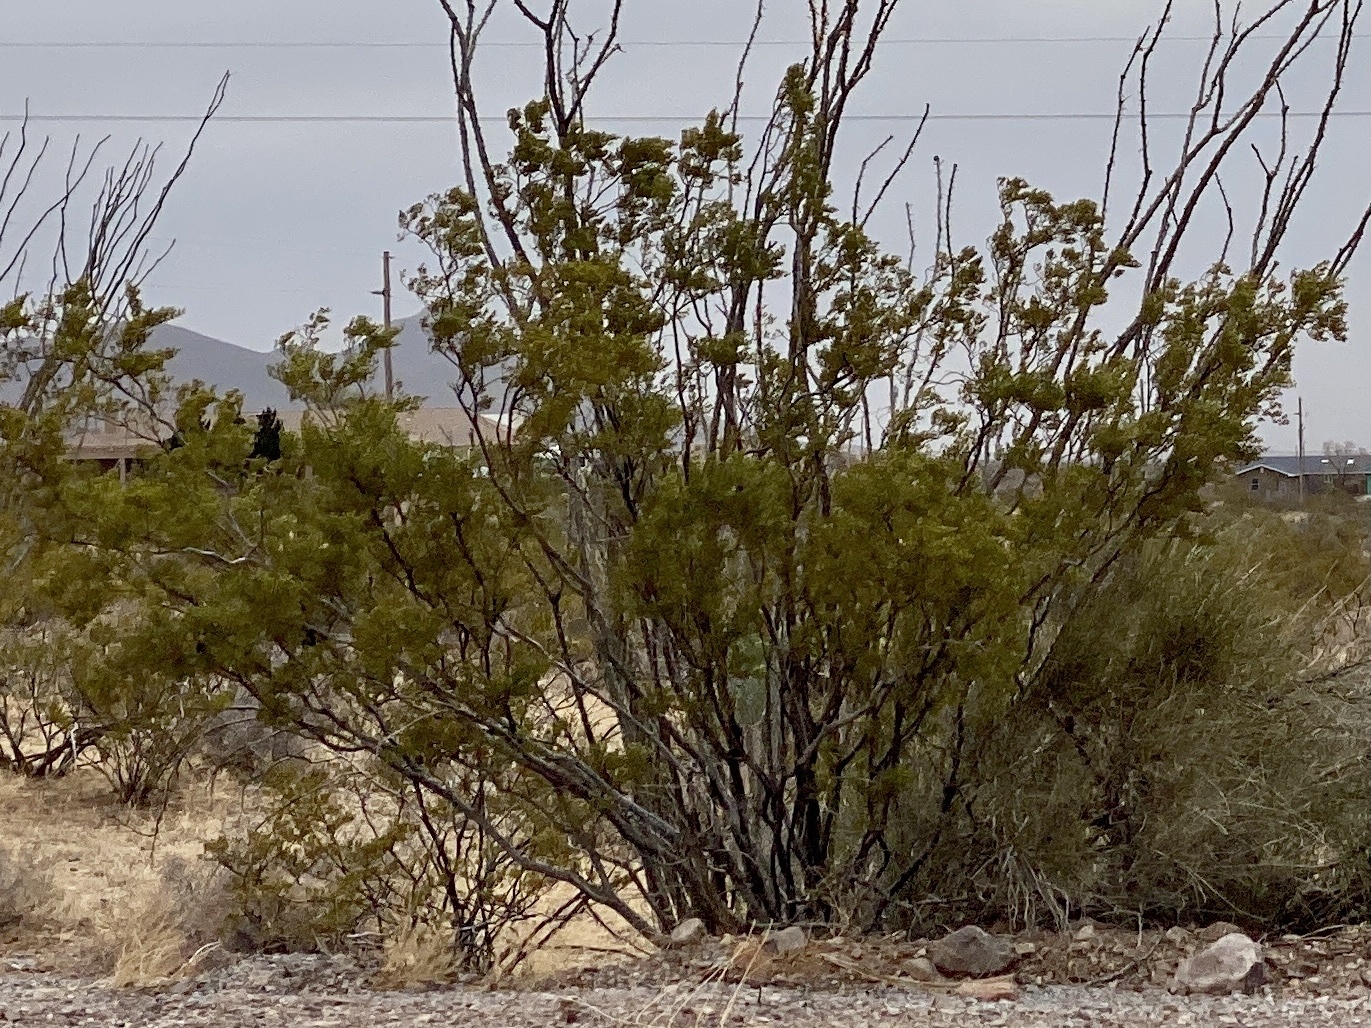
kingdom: Plantae
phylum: Tracheophyta
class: Magnoliopsida
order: Zygophyllales
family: Zygophyllaceae
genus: Larrea
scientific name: Larrea tridentata
